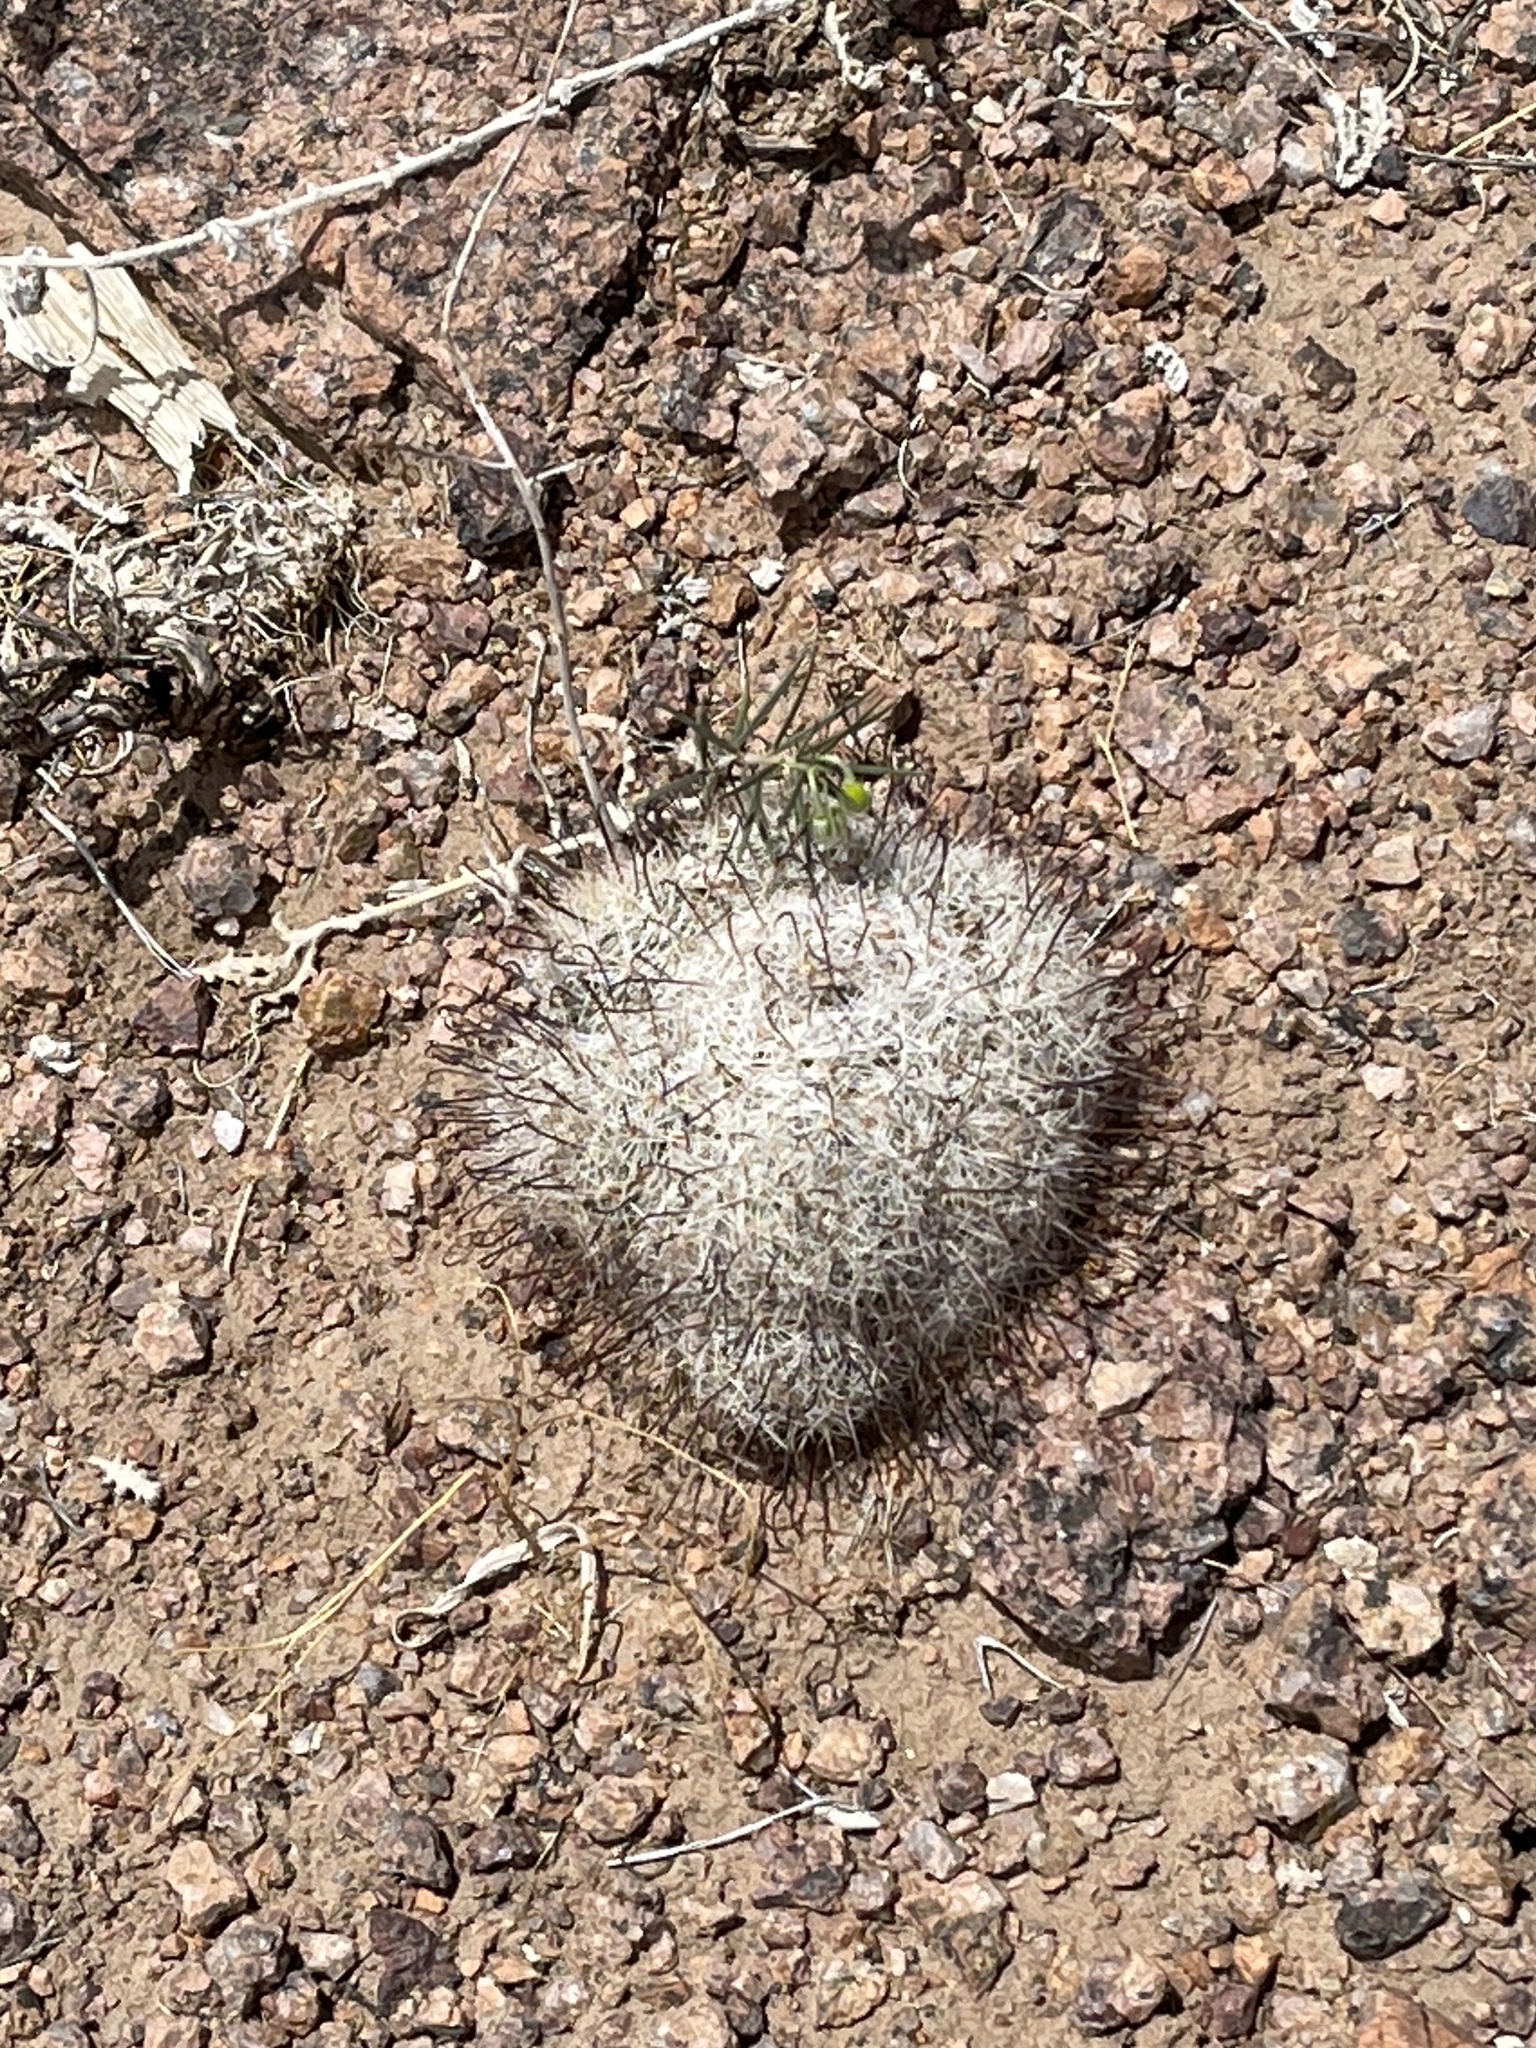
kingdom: Plantae
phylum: Tracheophyta
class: Magnoliopsida
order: Caryophyllales
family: Cactaceae
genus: Cochemiea
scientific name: Cochemiea grahamii
